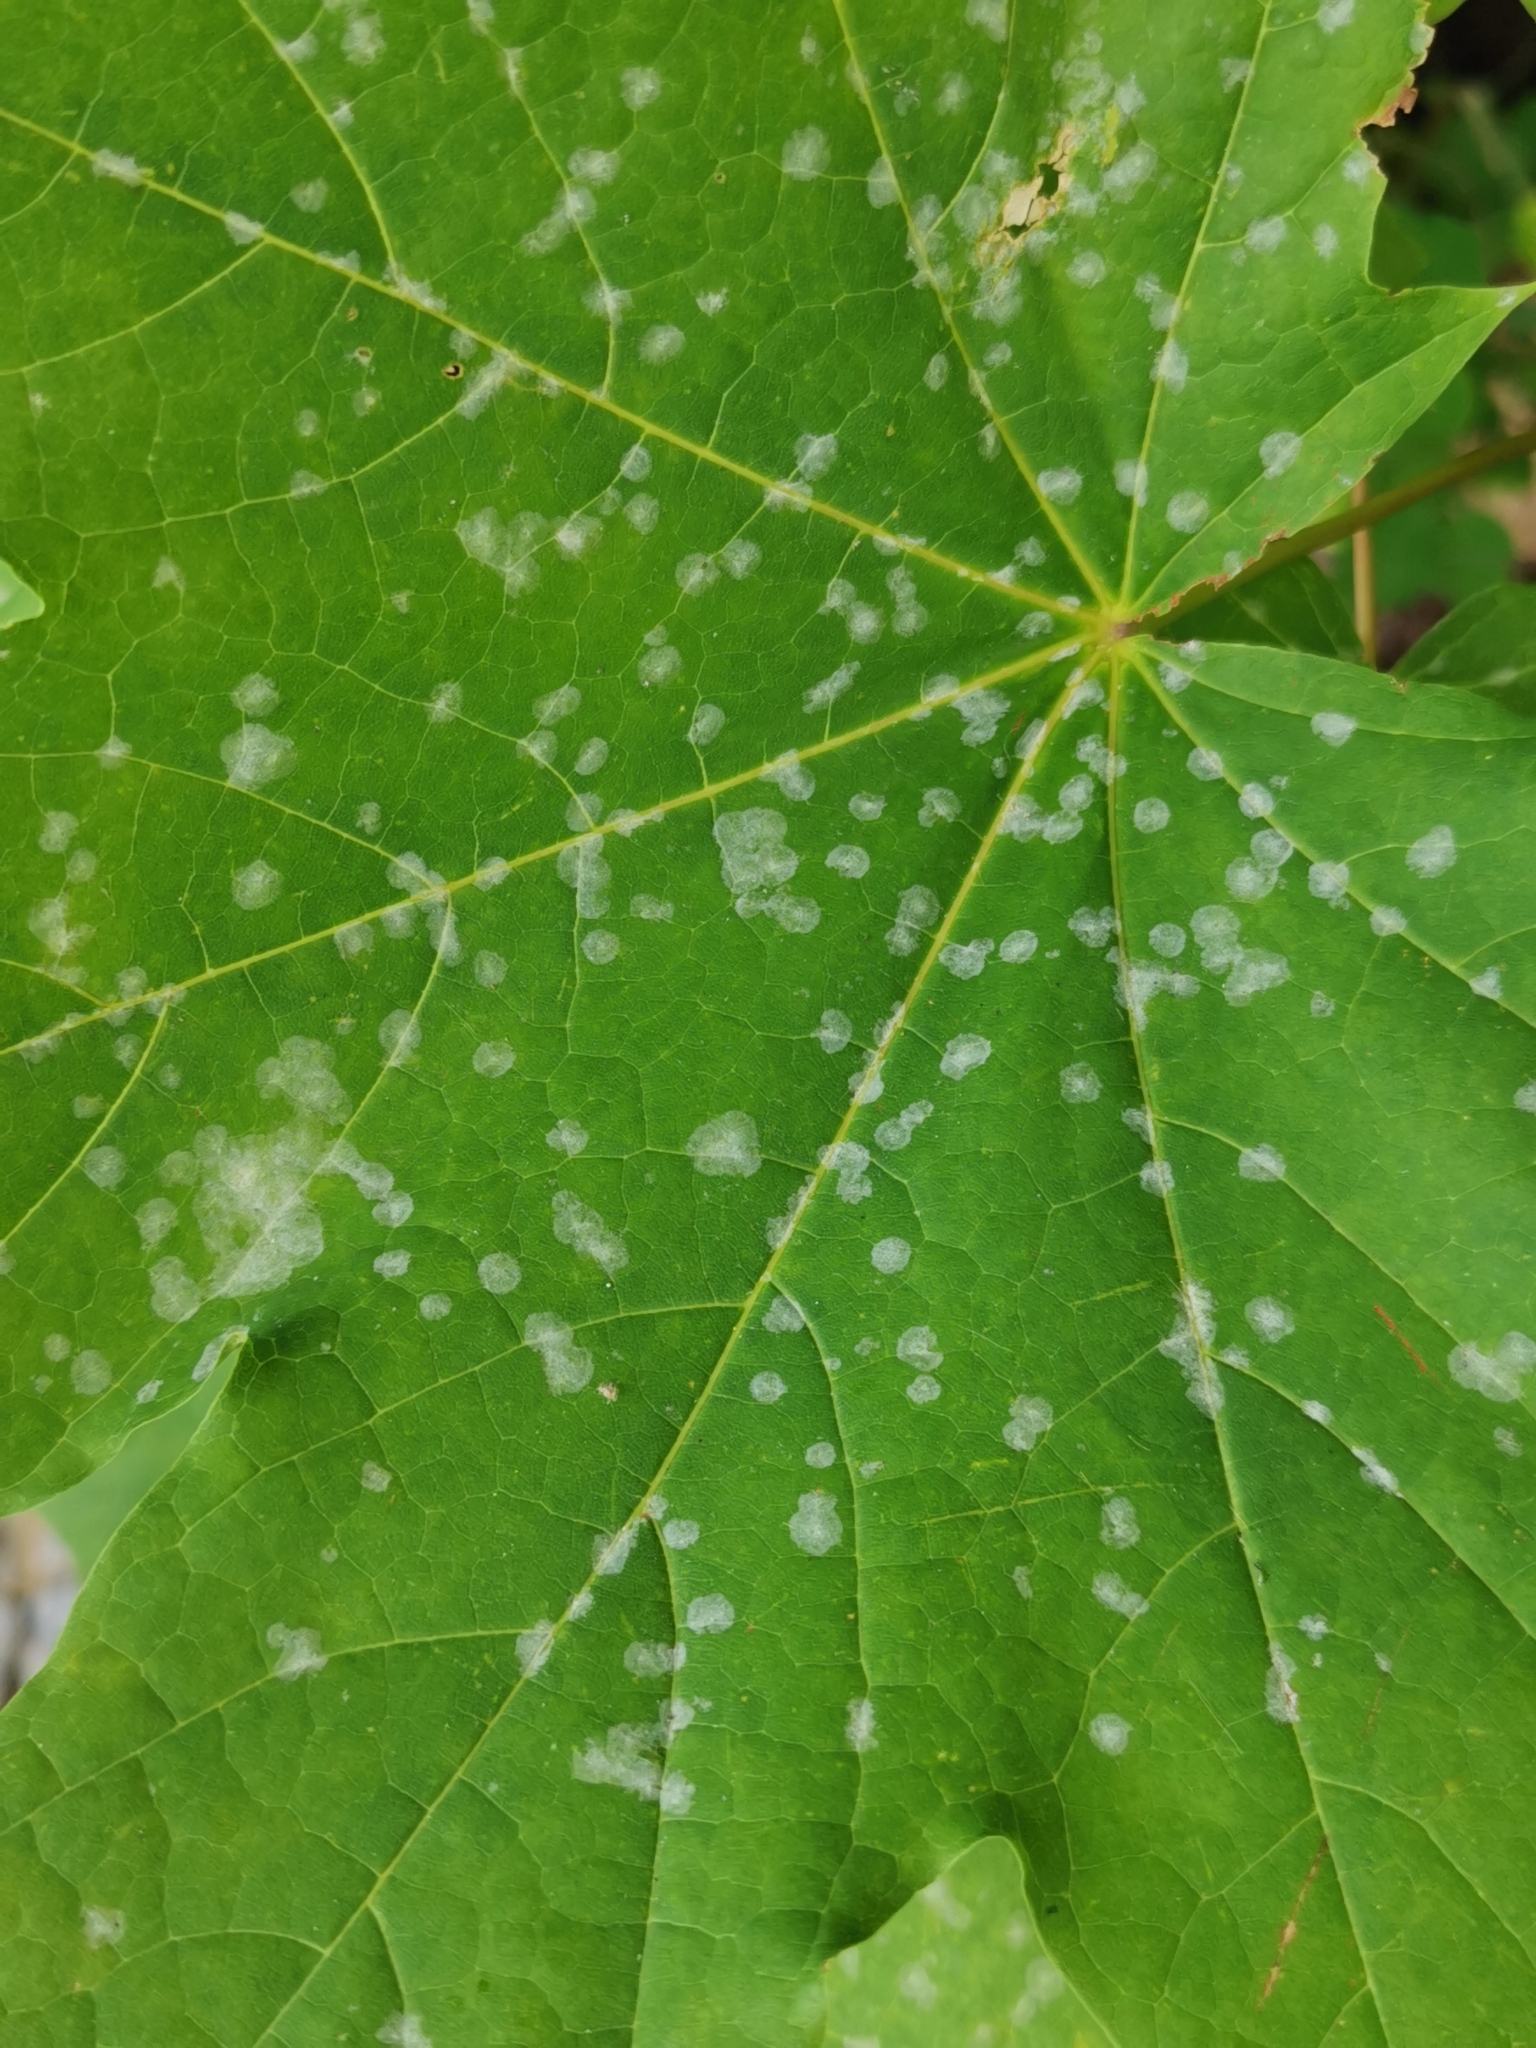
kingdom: Fungi
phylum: Ascomycota
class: Leotiomycetes
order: Helotiales
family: Erysiphaceae
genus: Sawadaea
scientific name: Sawadaea tulasnei
